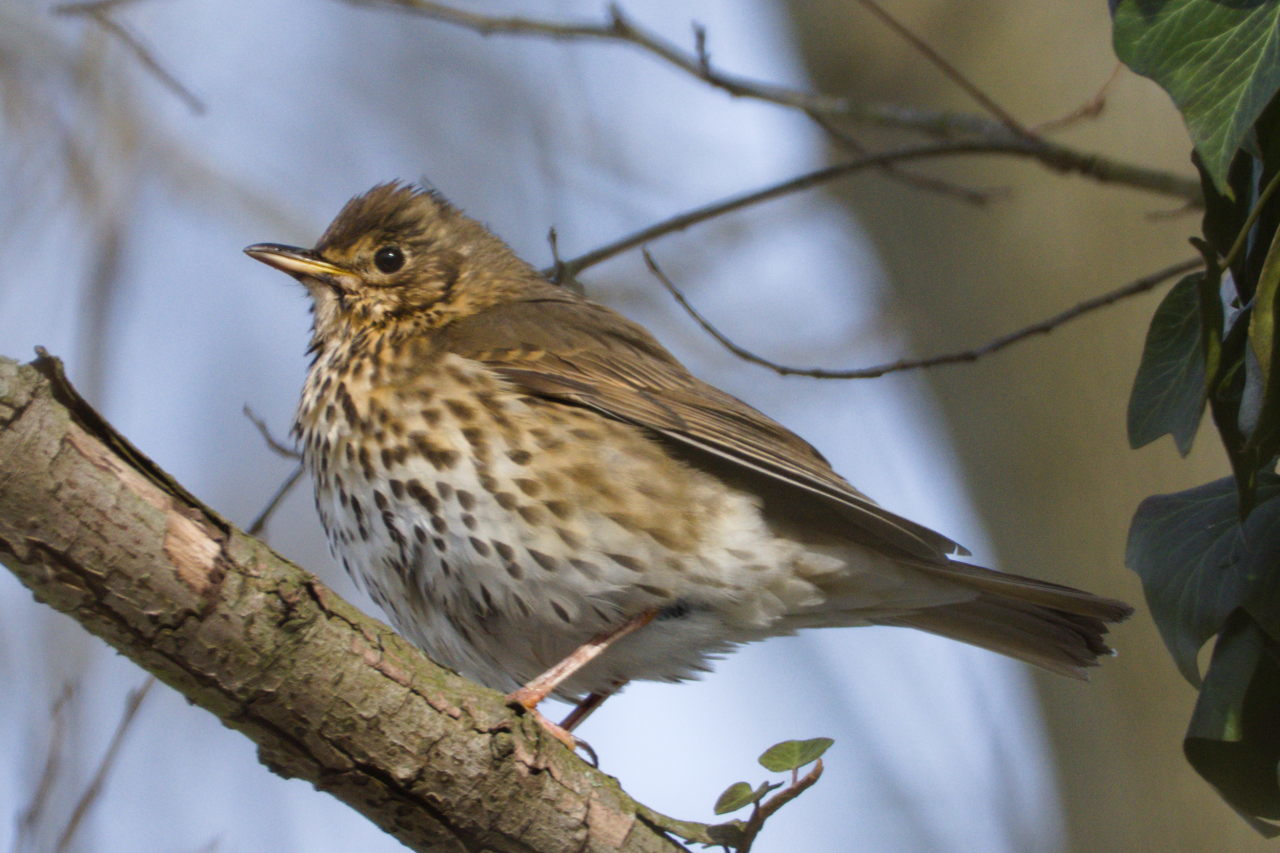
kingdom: Animalia
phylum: Chordata
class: Aves
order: Passeriformes
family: Turdidae
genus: Turdus
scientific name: Turdus philomelos
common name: Song thrush
